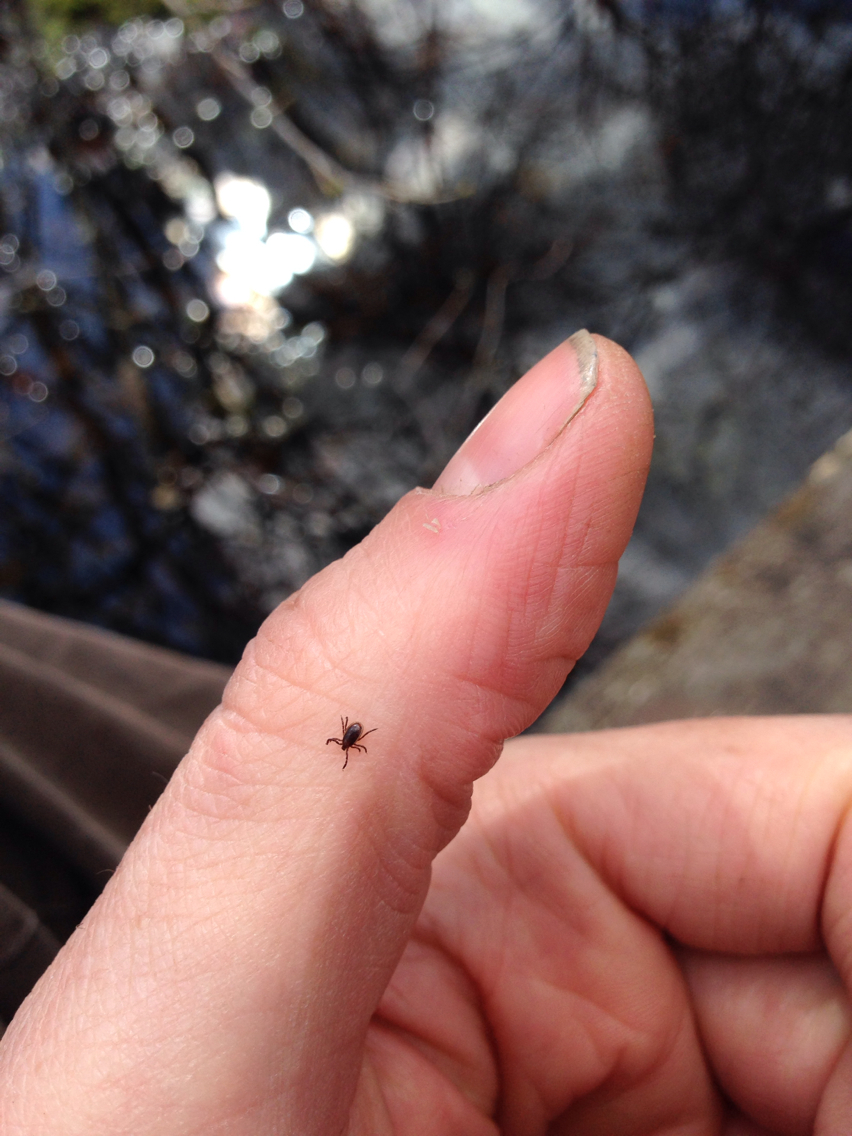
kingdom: Animalia
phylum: Arthropoda
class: Arachnida
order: Ixodida
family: Ixodidae
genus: Ixodes
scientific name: Ixodes scapularis
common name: Black legged tick
